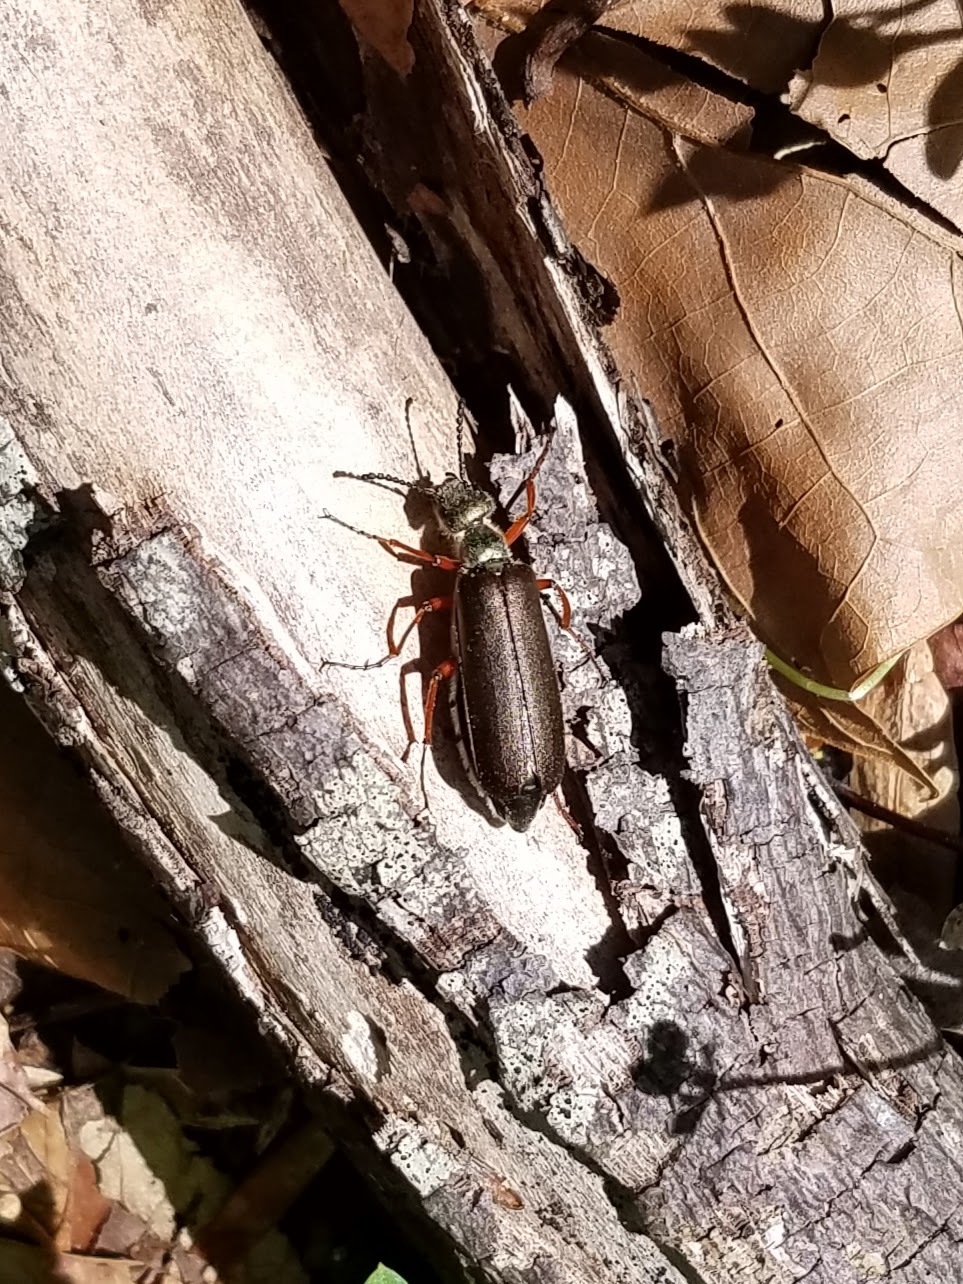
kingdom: Animalia
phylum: Arthropoda
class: Insecta
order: Coleoptera
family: Meloidae
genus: Lytta
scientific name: Lytta aenea
